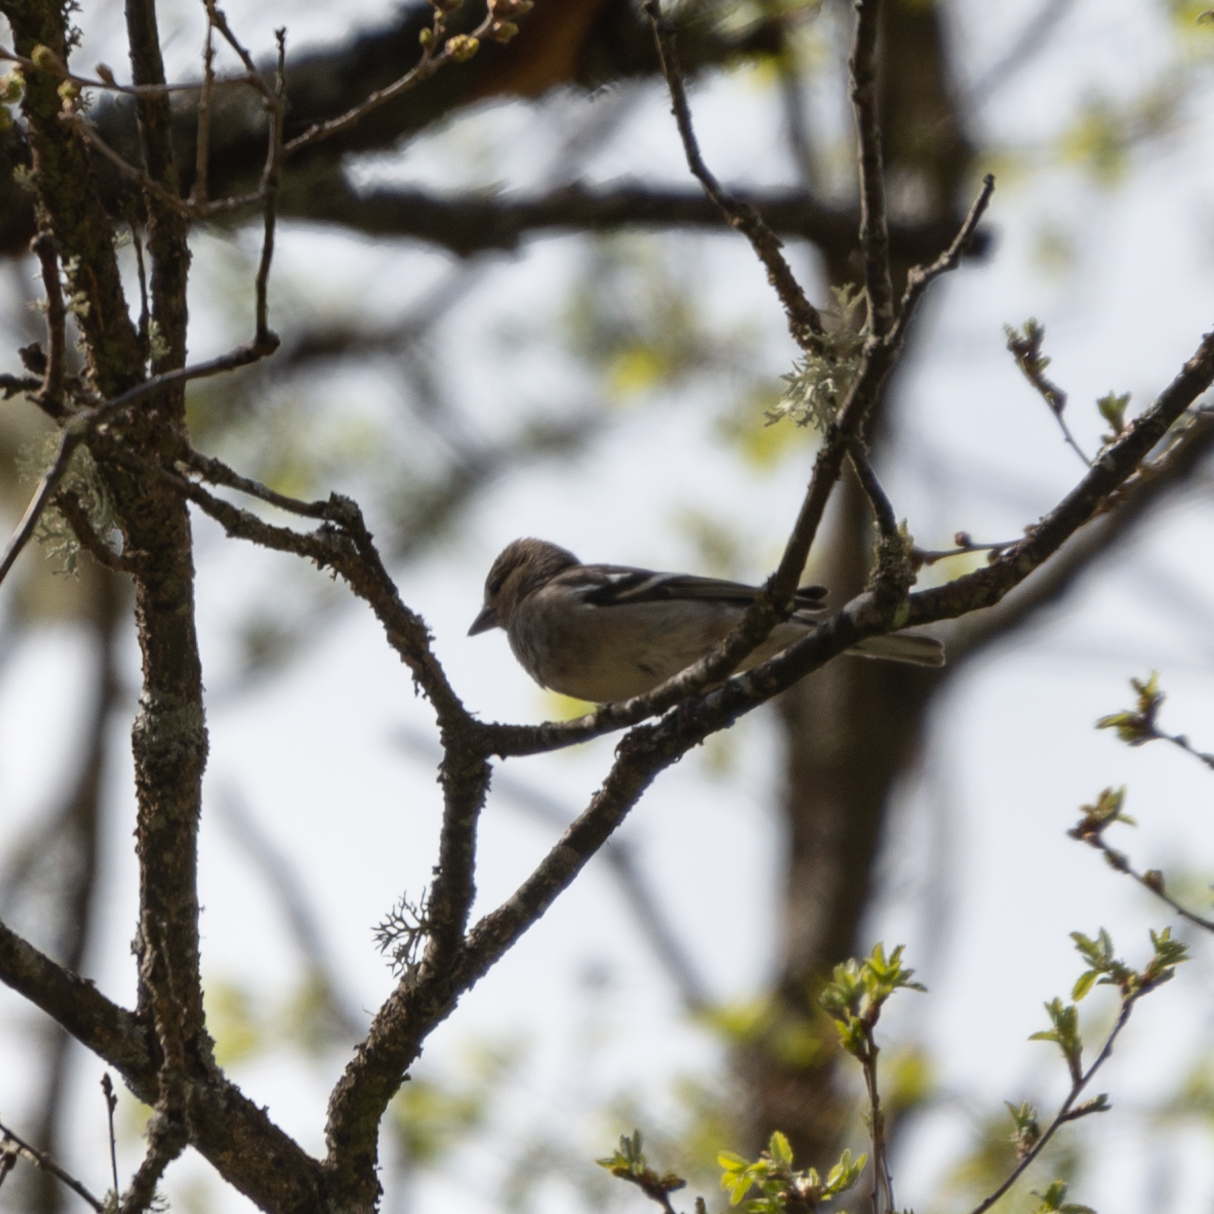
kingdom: Animalia
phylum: Chordata
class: Aves
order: Passeriformes
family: Fringillidae
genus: Fringilla
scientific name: Fringilla coelebs
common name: Common chaffinch
